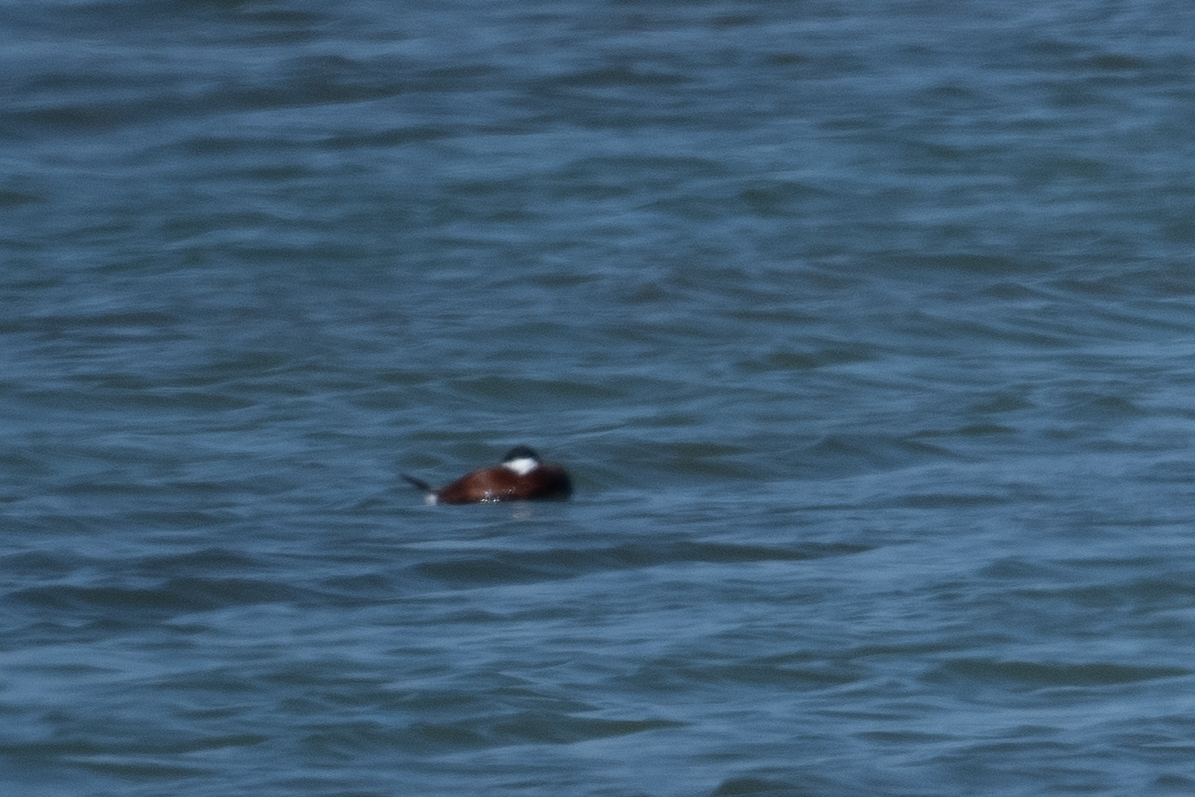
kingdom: Animalia
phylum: Chordata
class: Aves
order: Anseriformes
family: Anatidae
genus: Oxyura
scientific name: Oxyura jamaicensis
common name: Ruddy duck
